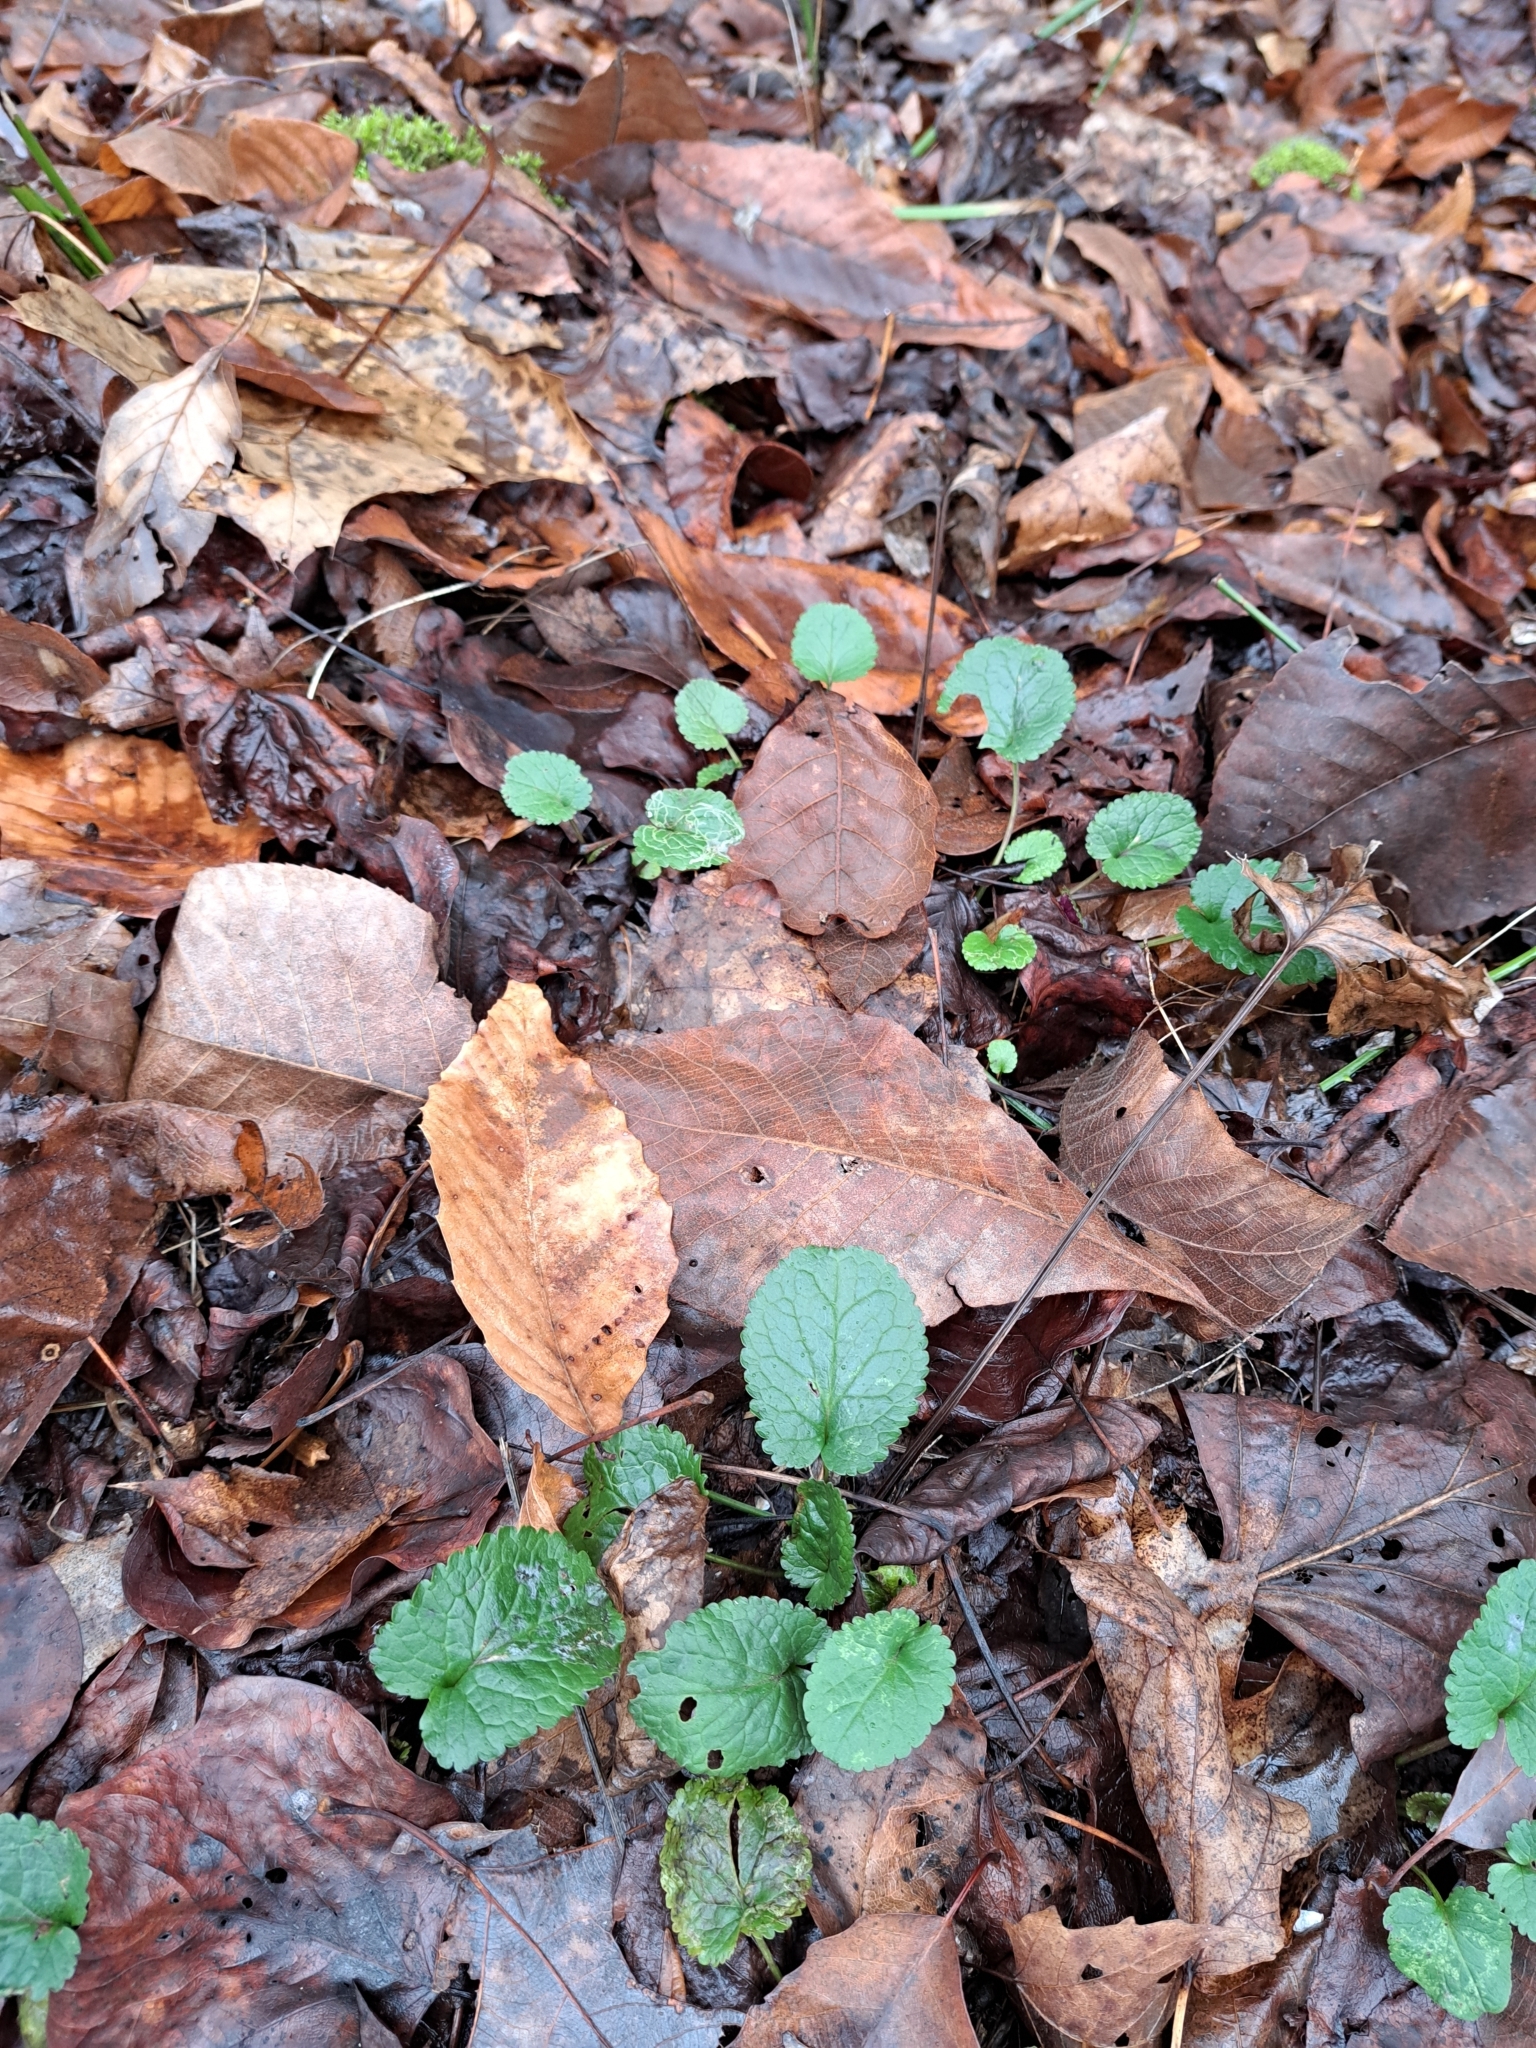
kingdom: Plantae
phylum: Tracheophyta
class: Magnoliopsida
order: Asterales
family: Asteraceae
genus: Packera
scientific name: Packera aurea
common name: Golden groundsel
